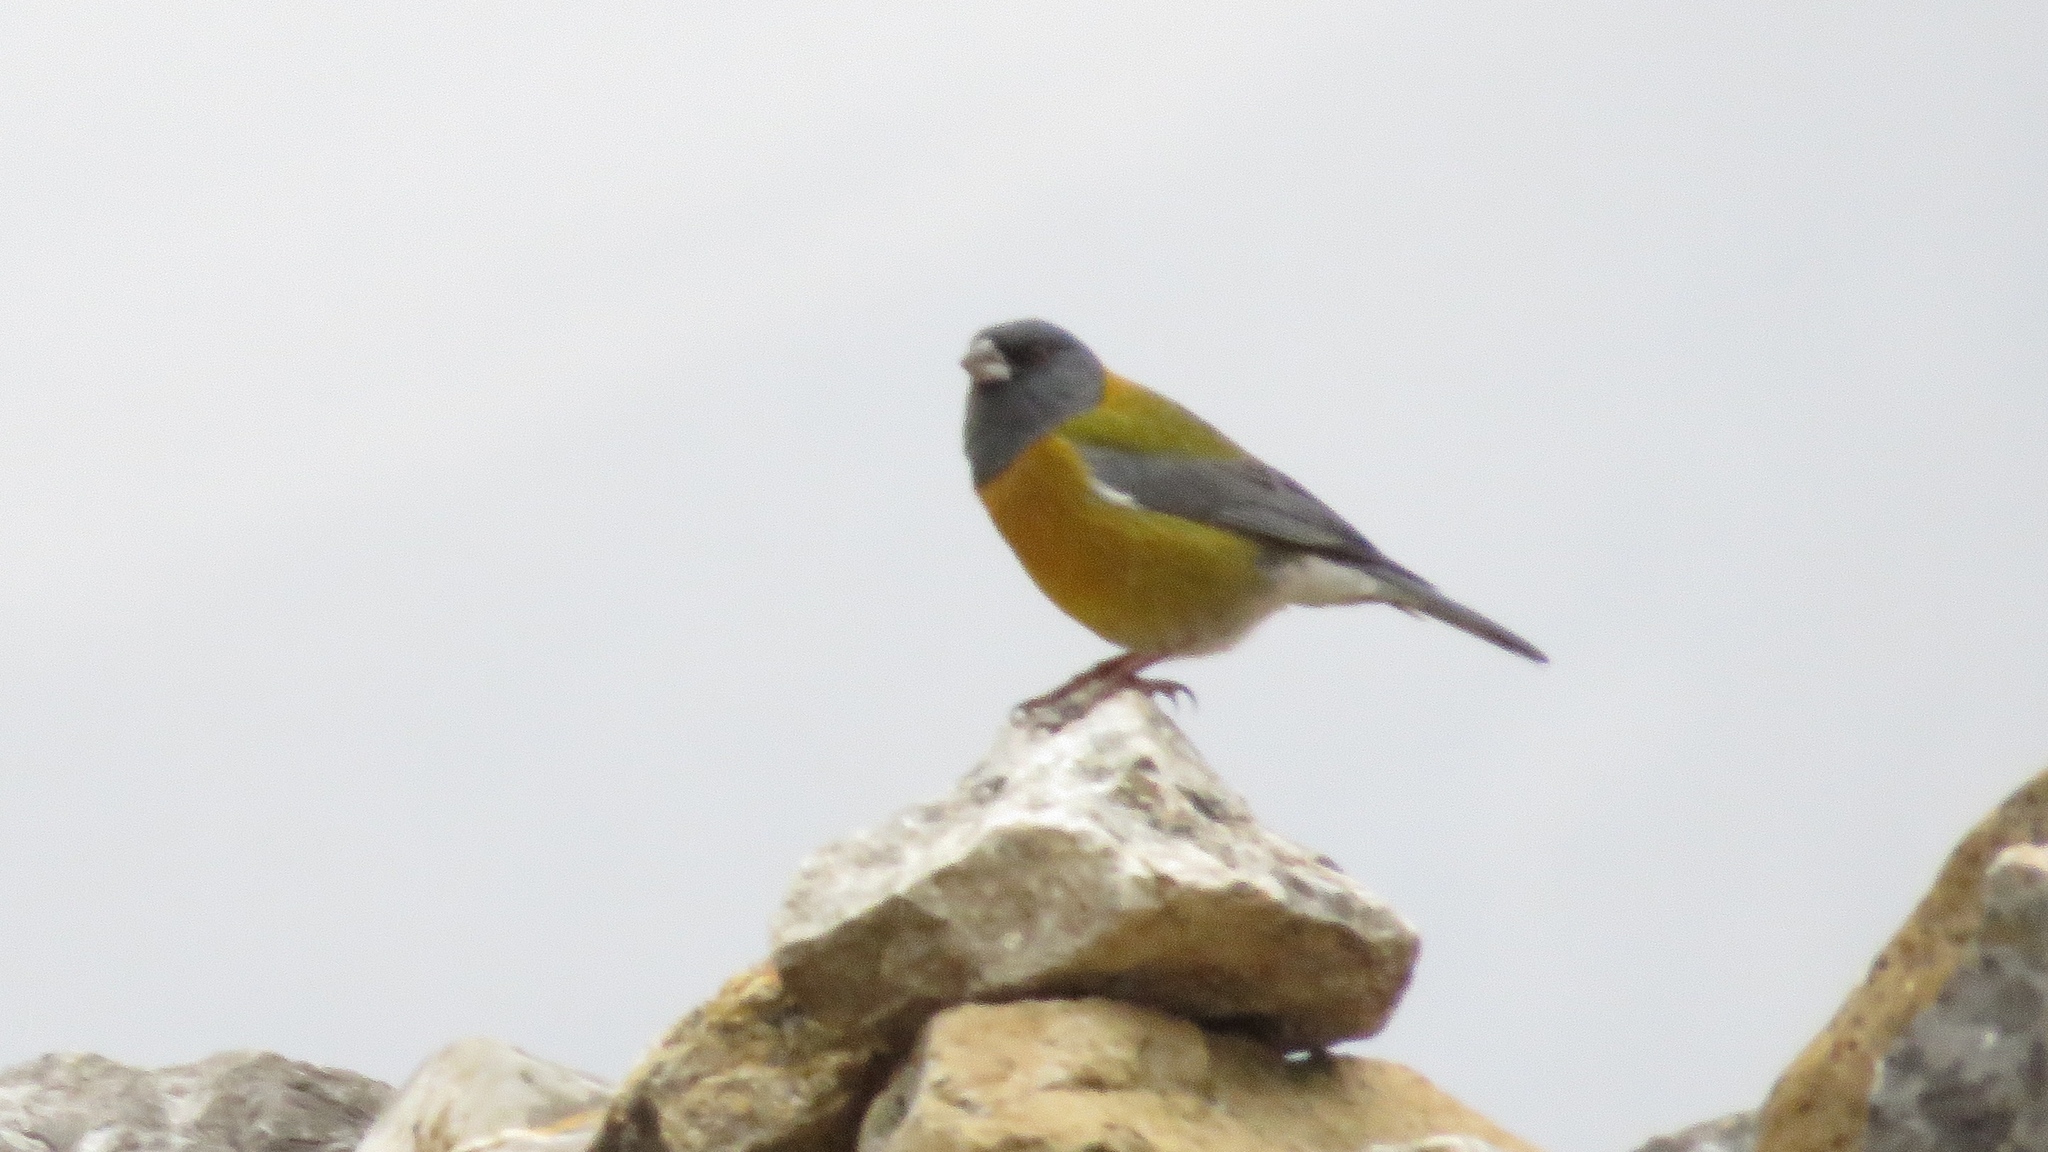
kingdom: Animalia
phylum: Chordata
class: Aves
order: Passeriformes
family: Thraupidae
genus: Phrygilus
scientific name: Phrygilus punensis
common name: Peruvian sierra finch
